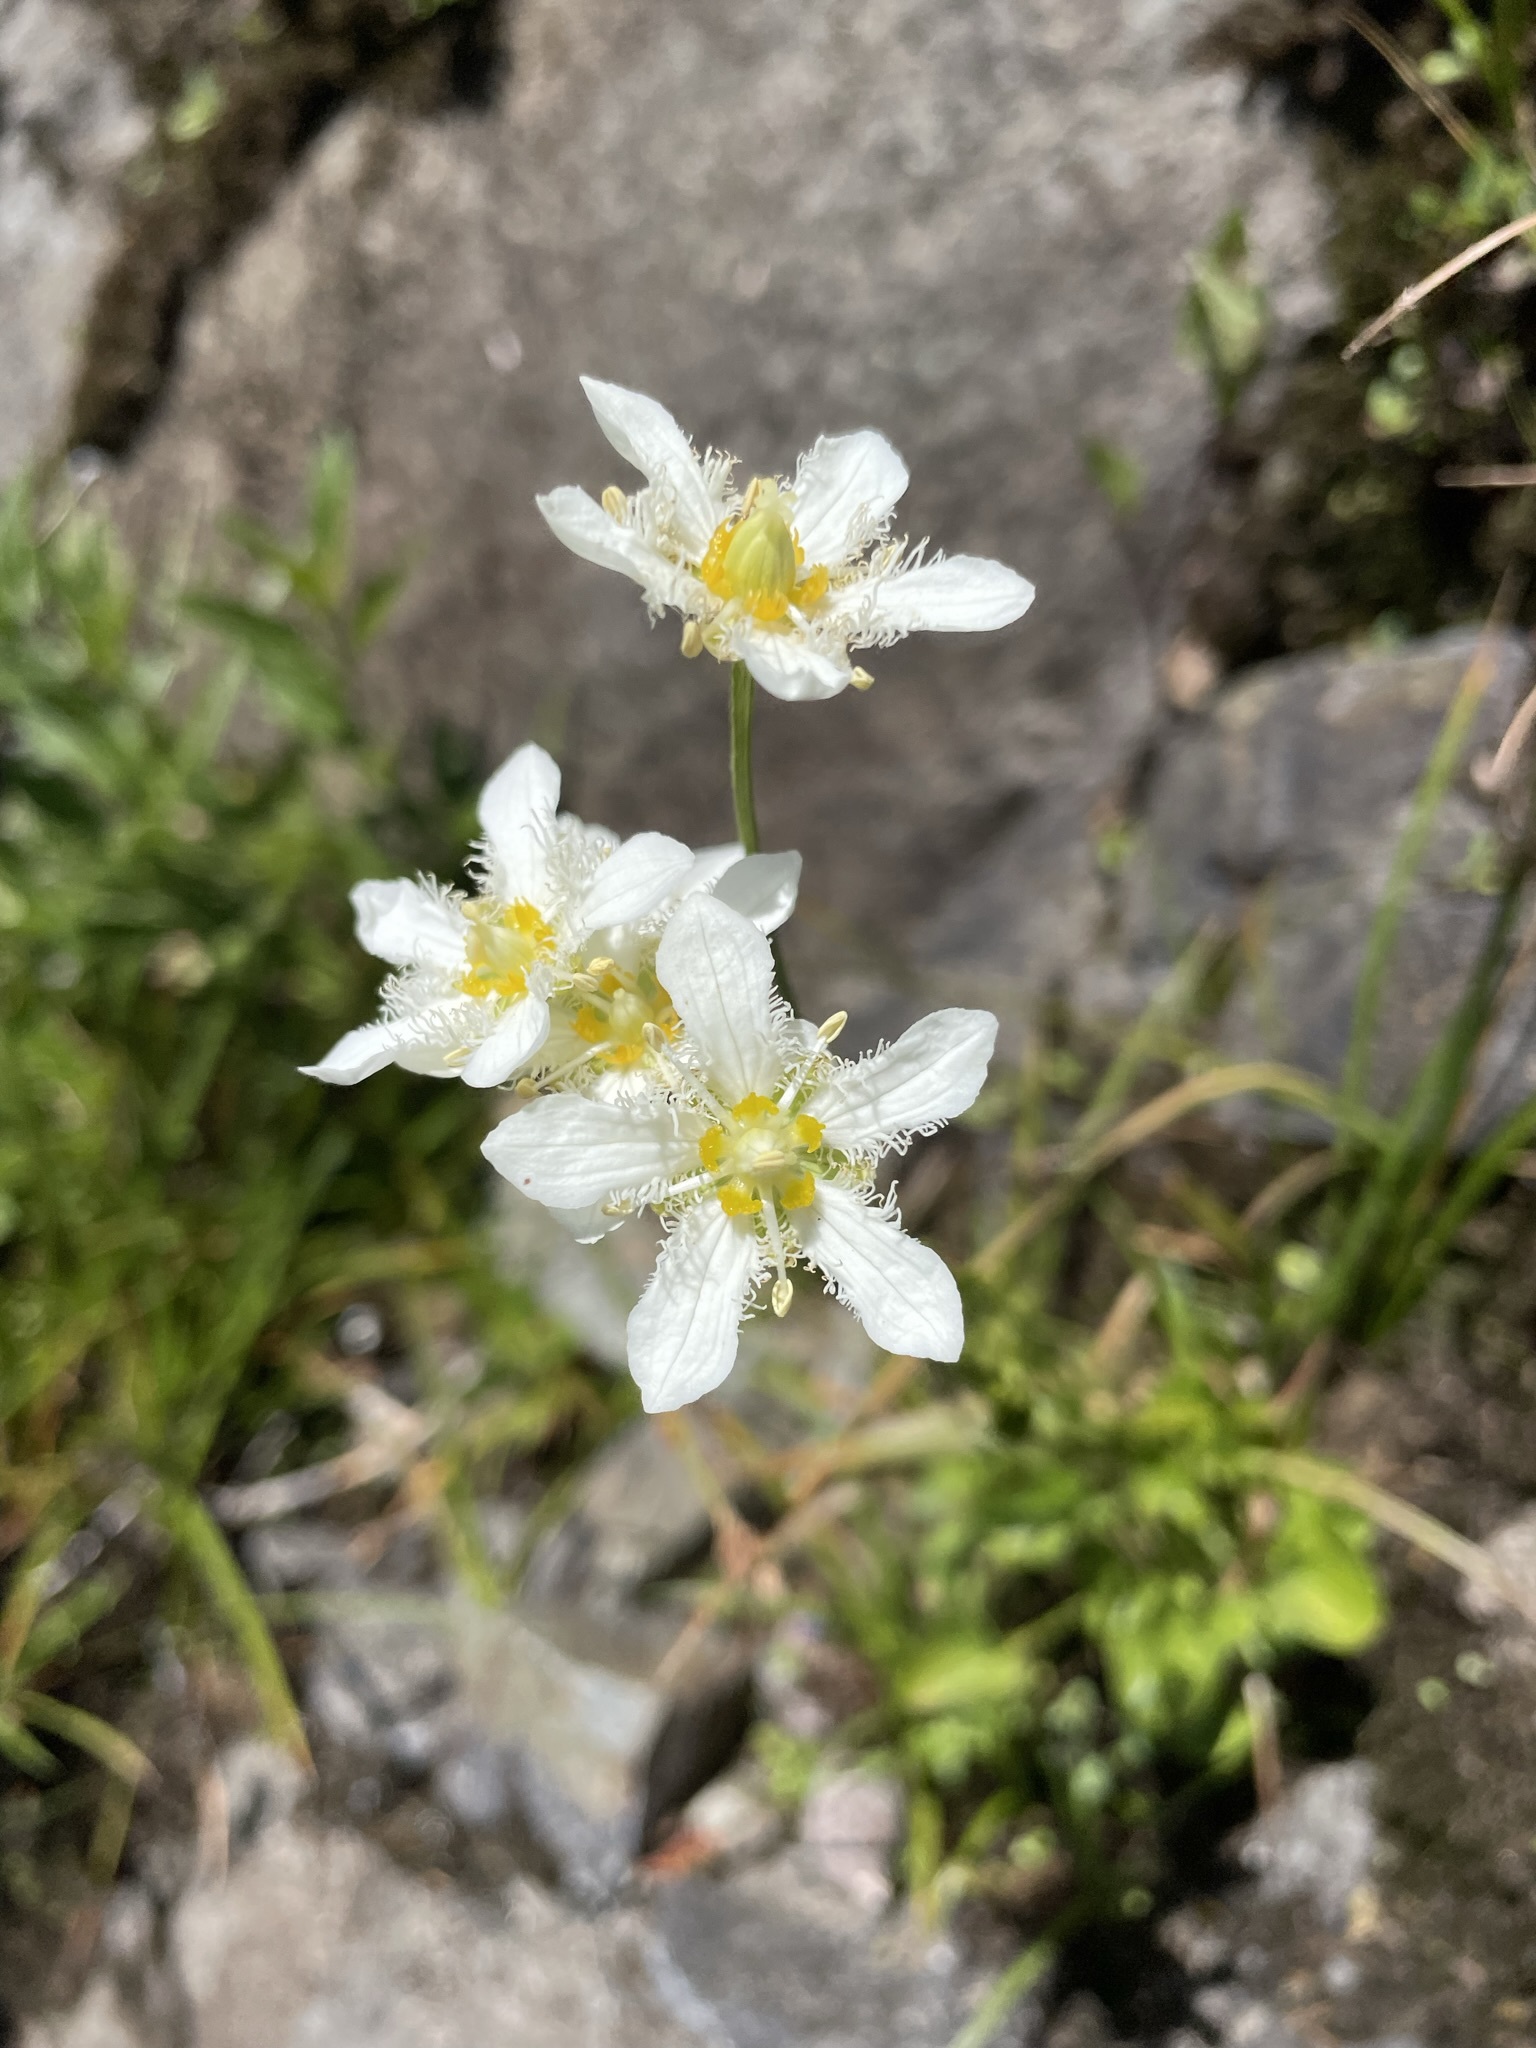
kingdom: Plantae
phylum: Tracheophyta
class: Magnoliopsida
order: Celastrales
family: Parnassiaceae
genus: Parnassia
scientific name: Parnassia fimbriata
